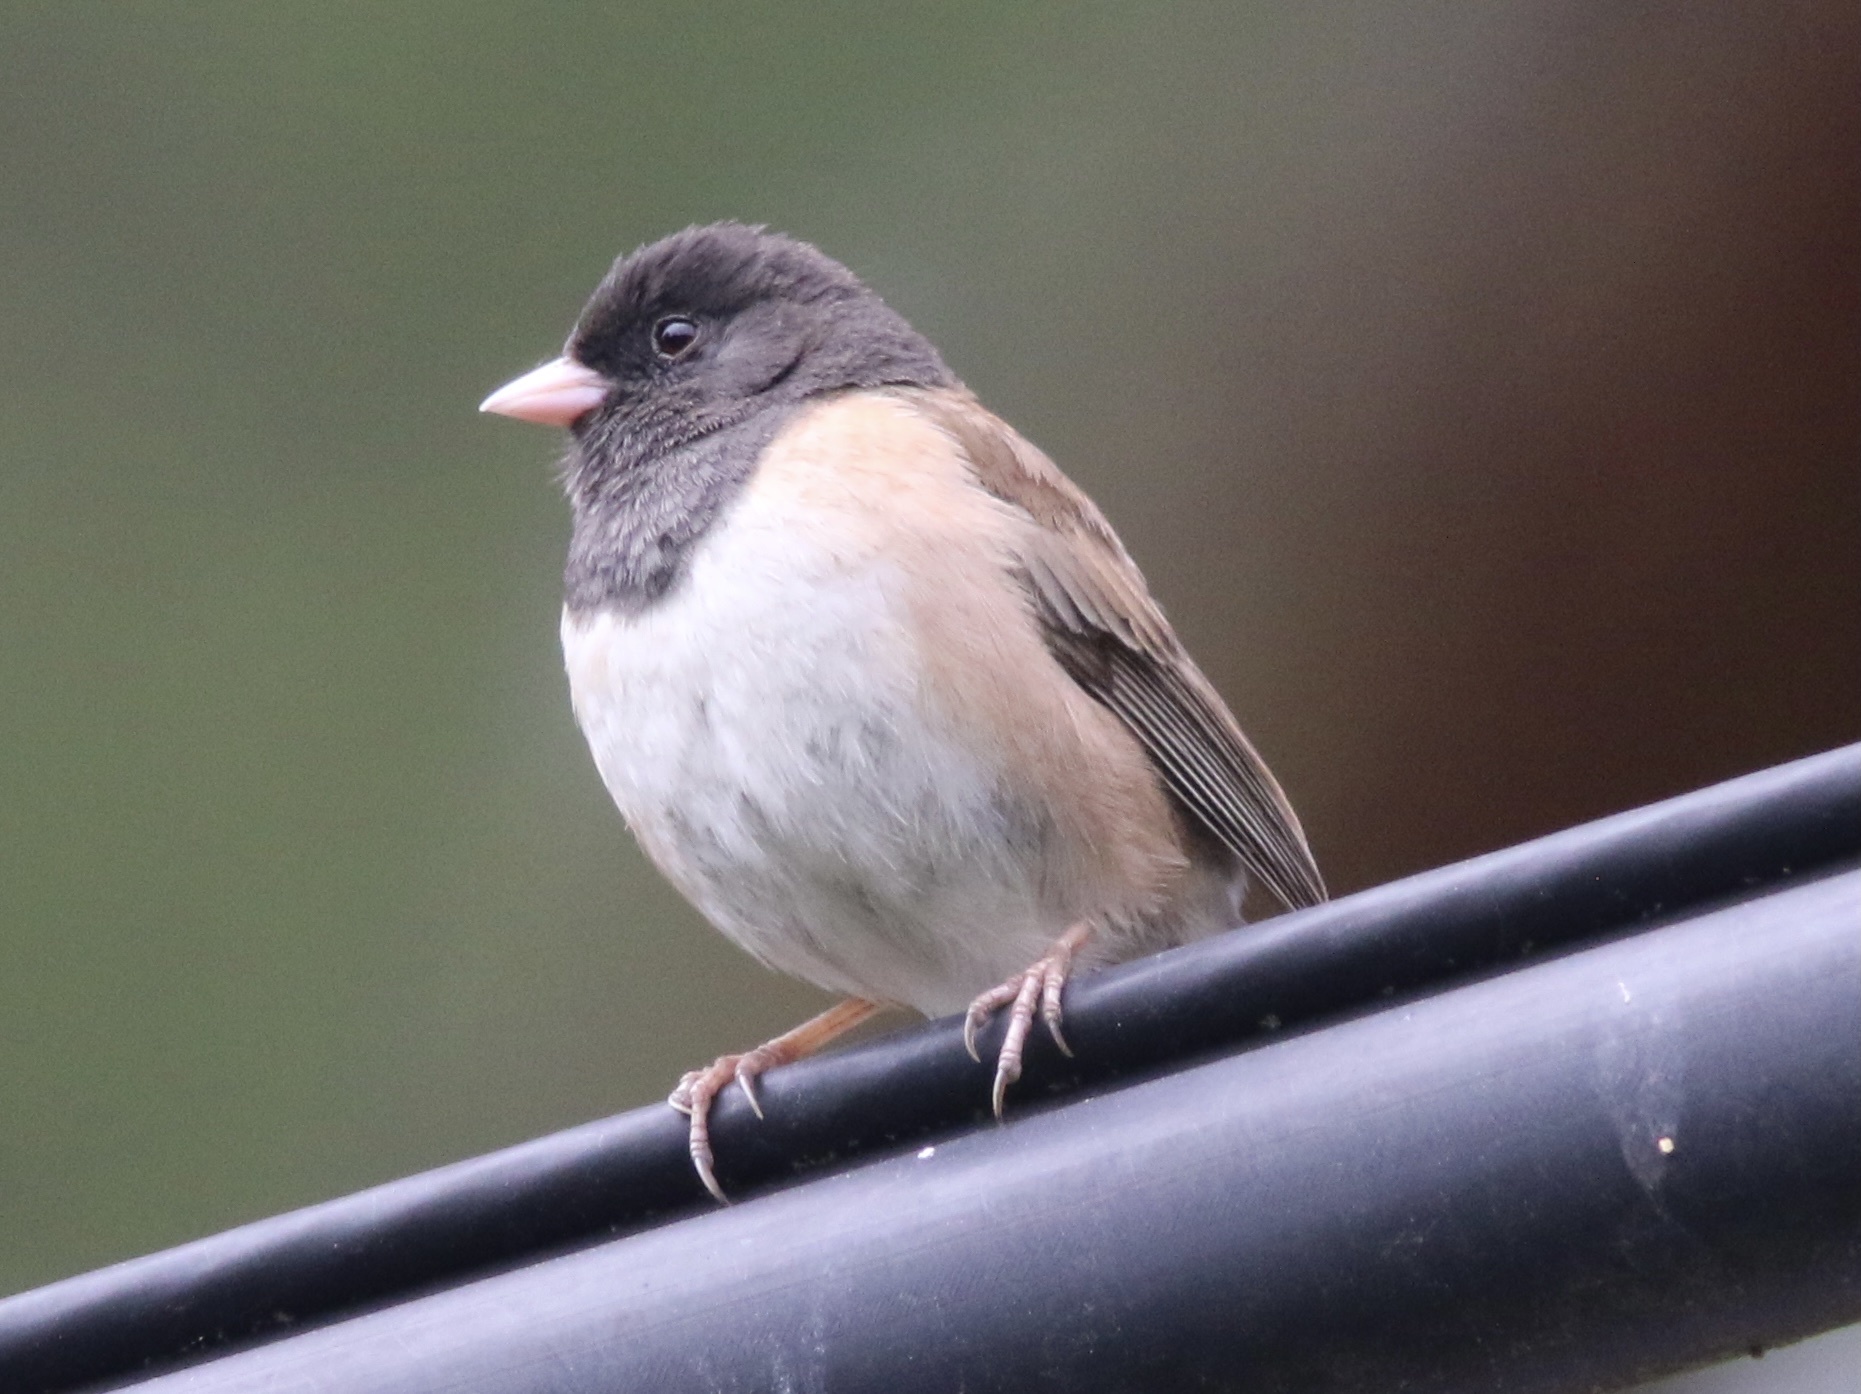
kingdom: Animalia
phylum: Chordata
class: Aves
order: Passeriformes
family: Passerellidae
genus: Junco
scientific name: Junco hyemalis
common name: Dark-eyed junco
